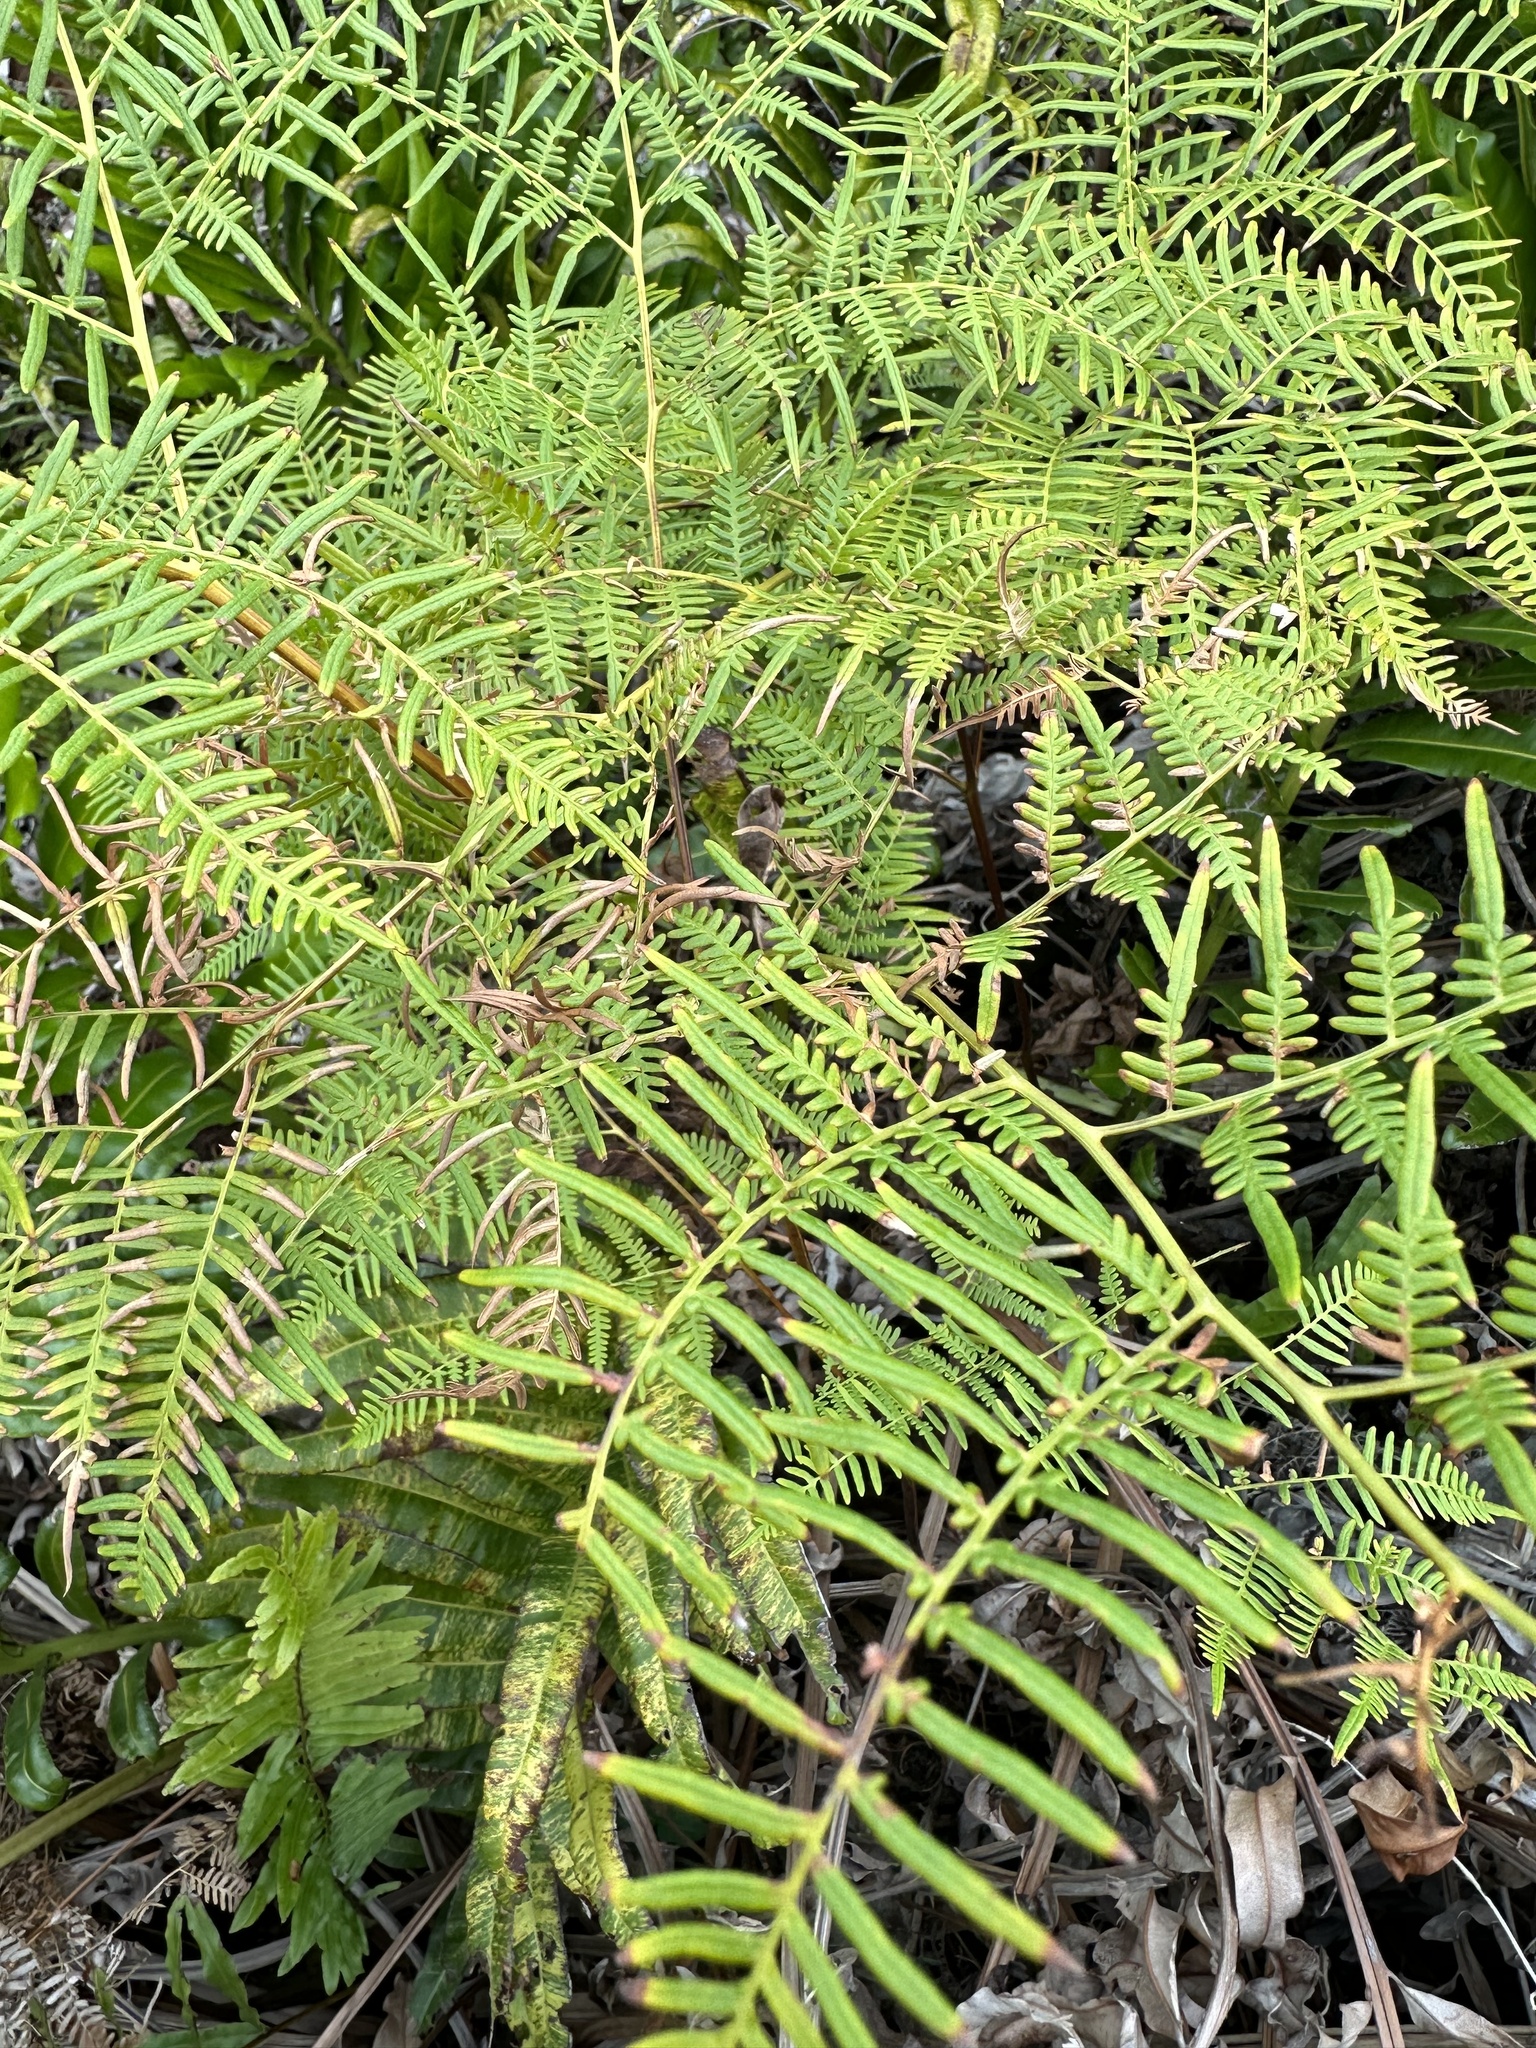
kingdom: Plantae
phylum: Tracheophyta
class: Polypodiopsida
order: Polypodiales
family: Dennstaedtiaceae
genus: Pteridium
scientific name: Pteridium caudatum
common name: Southern bracken fern
